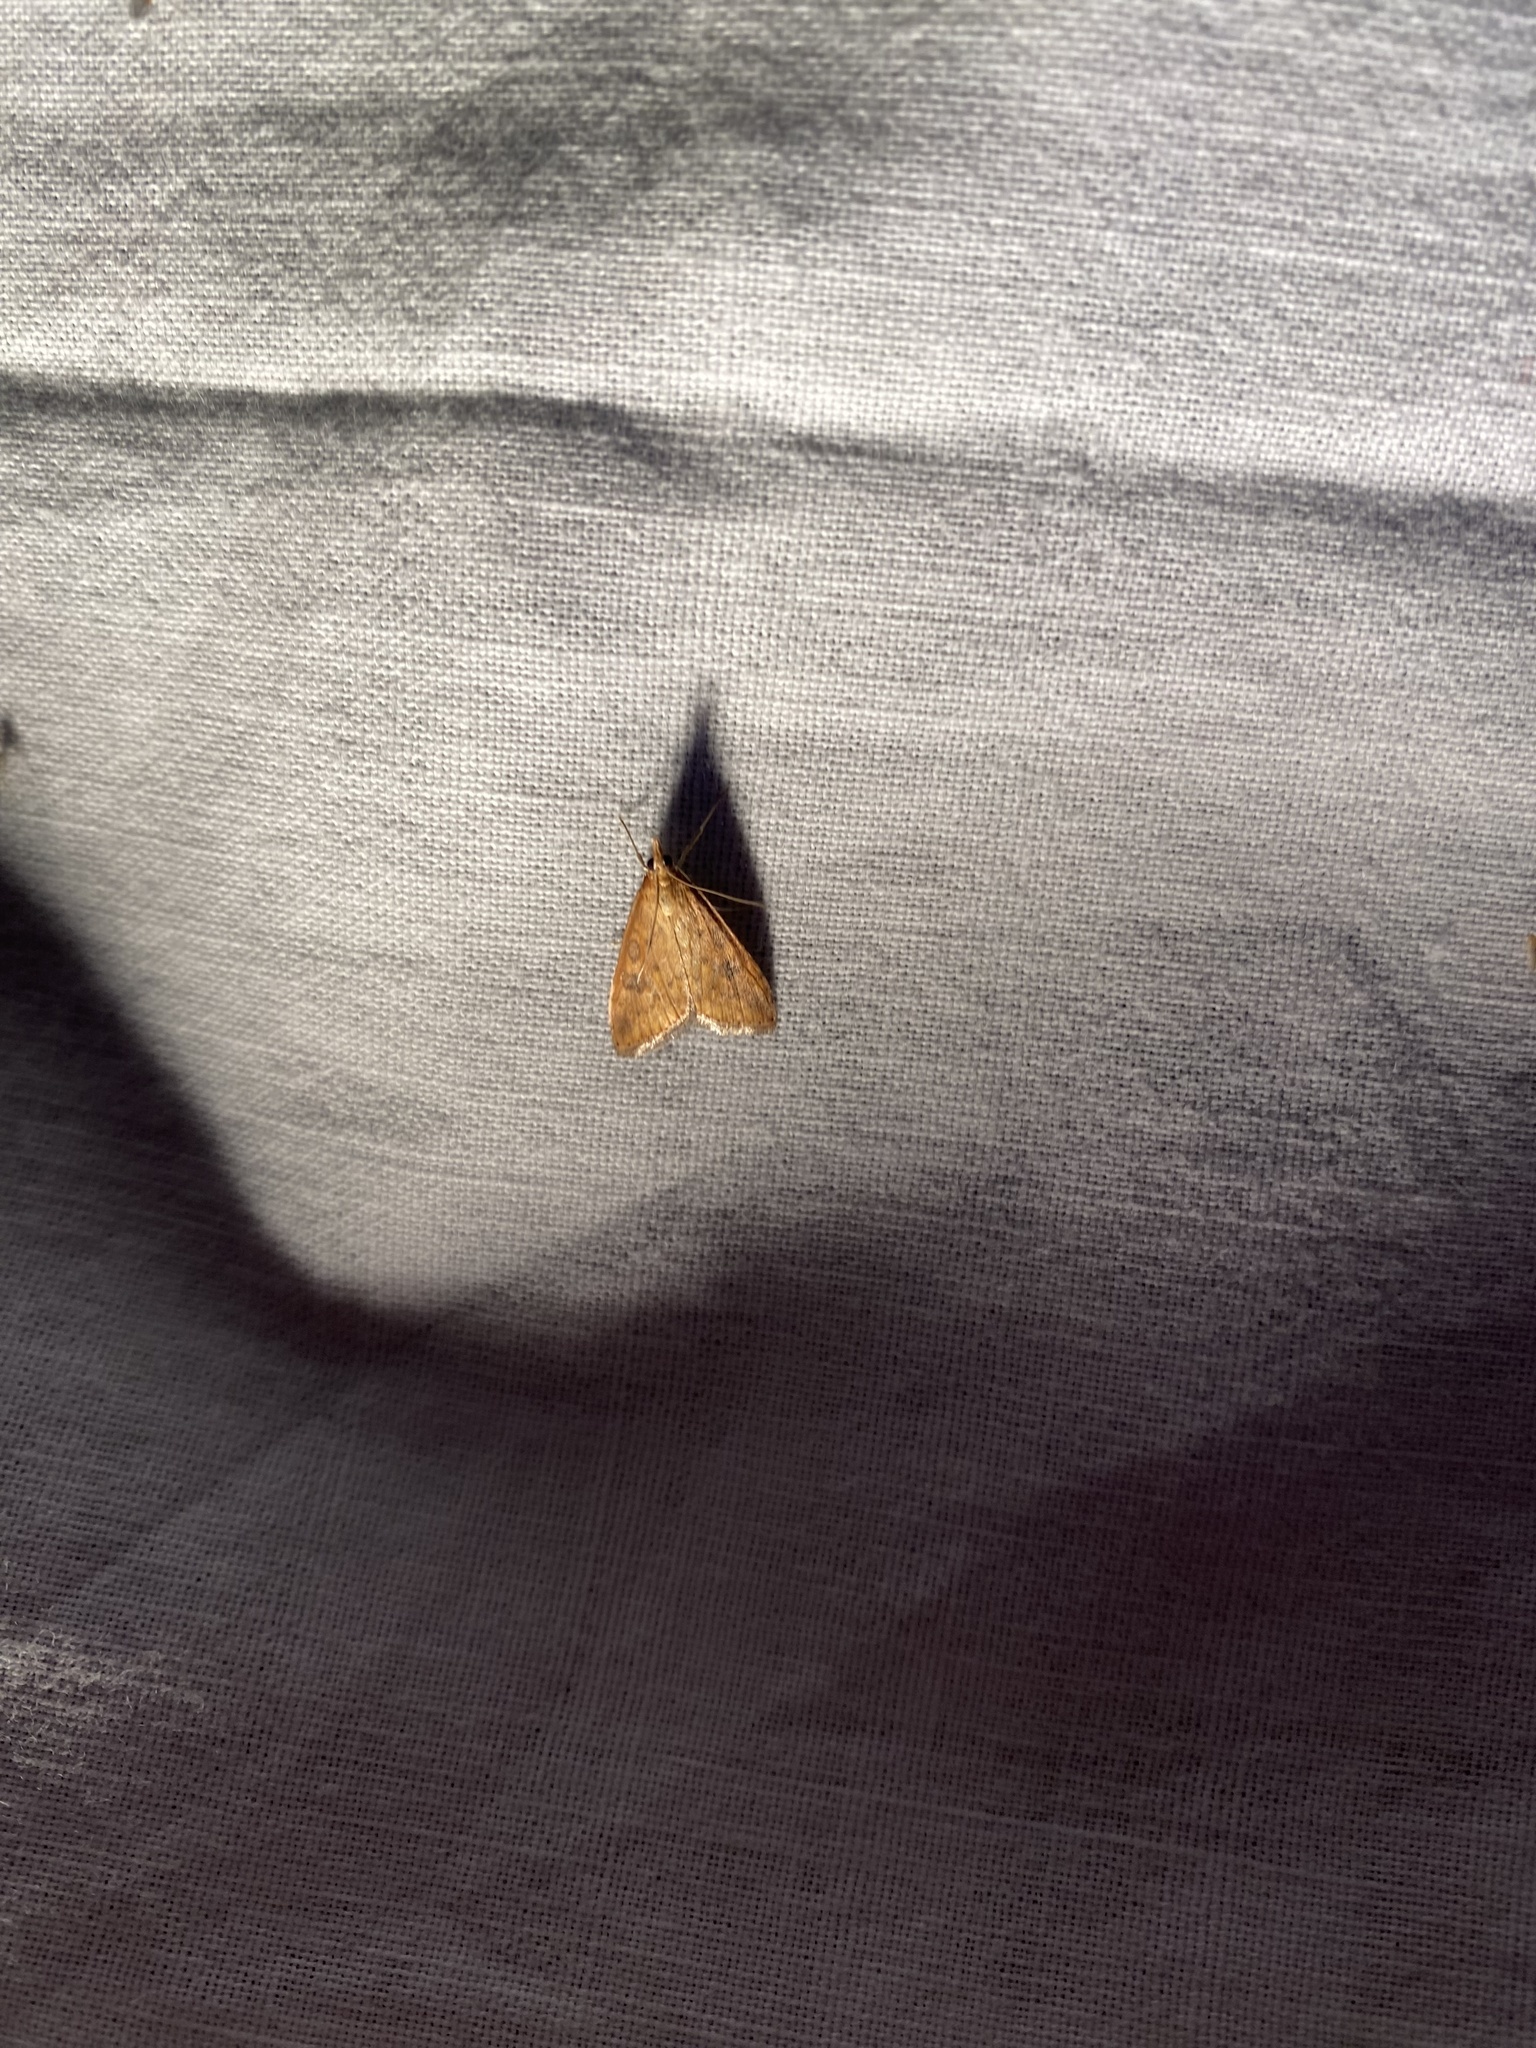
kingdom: Animalia
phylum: Arthropoda
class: Insecta
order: Lepidoptera
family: Crambidae
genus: Udea
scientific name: Udea ferrugalis
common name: Rusty dot
